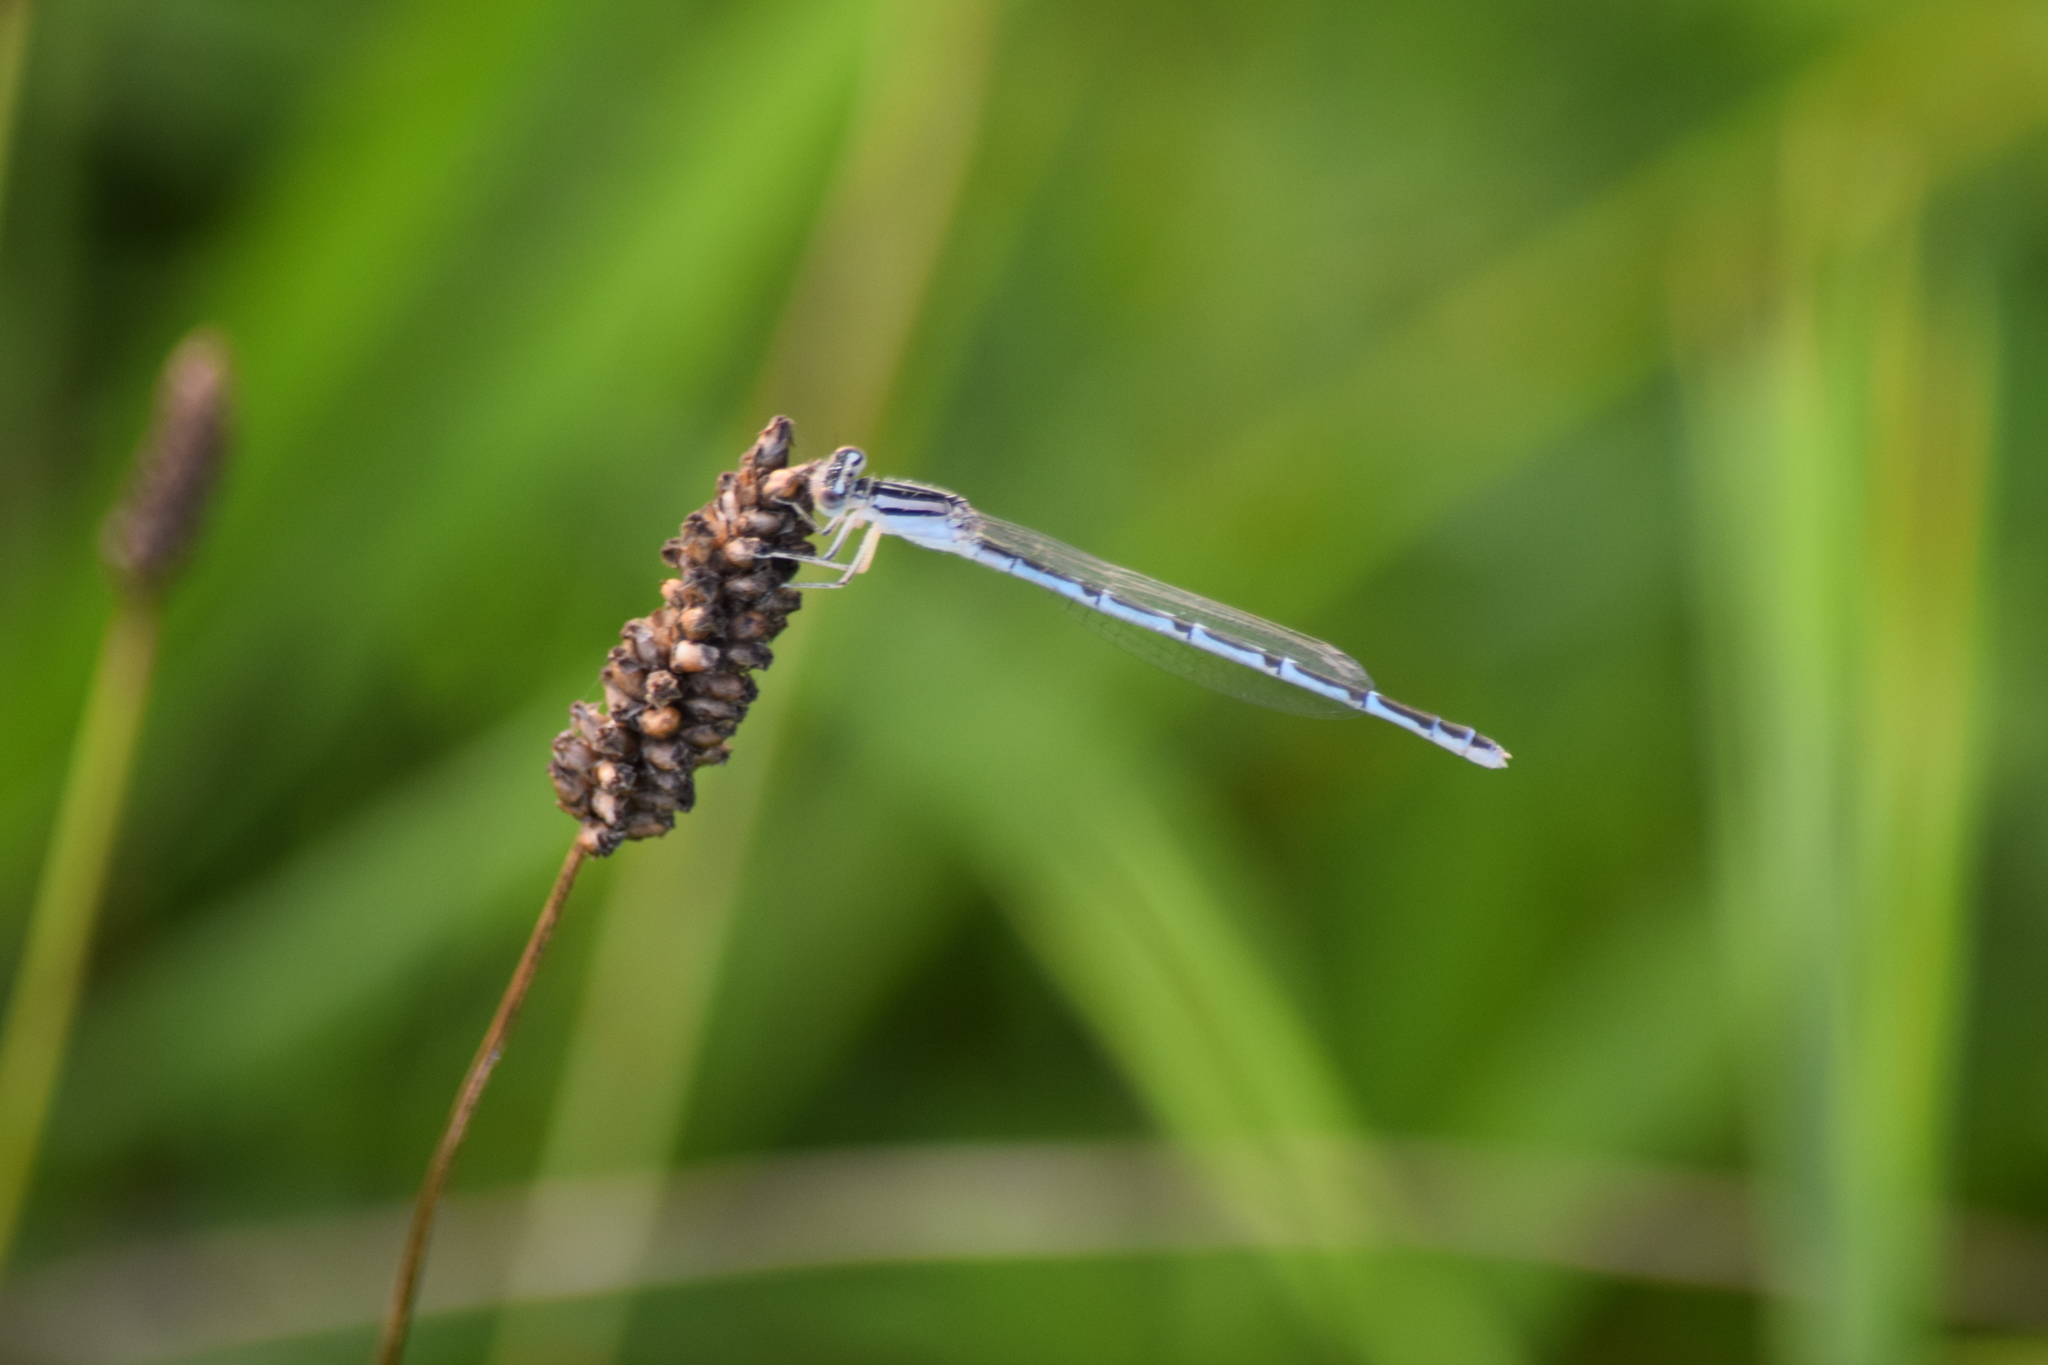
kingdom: Animalia
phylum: Arthropoda
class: Insecta
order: Odonata
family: Coenagrionidae
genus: Enallagma
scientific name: Enallagma durum
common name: Big bluet
